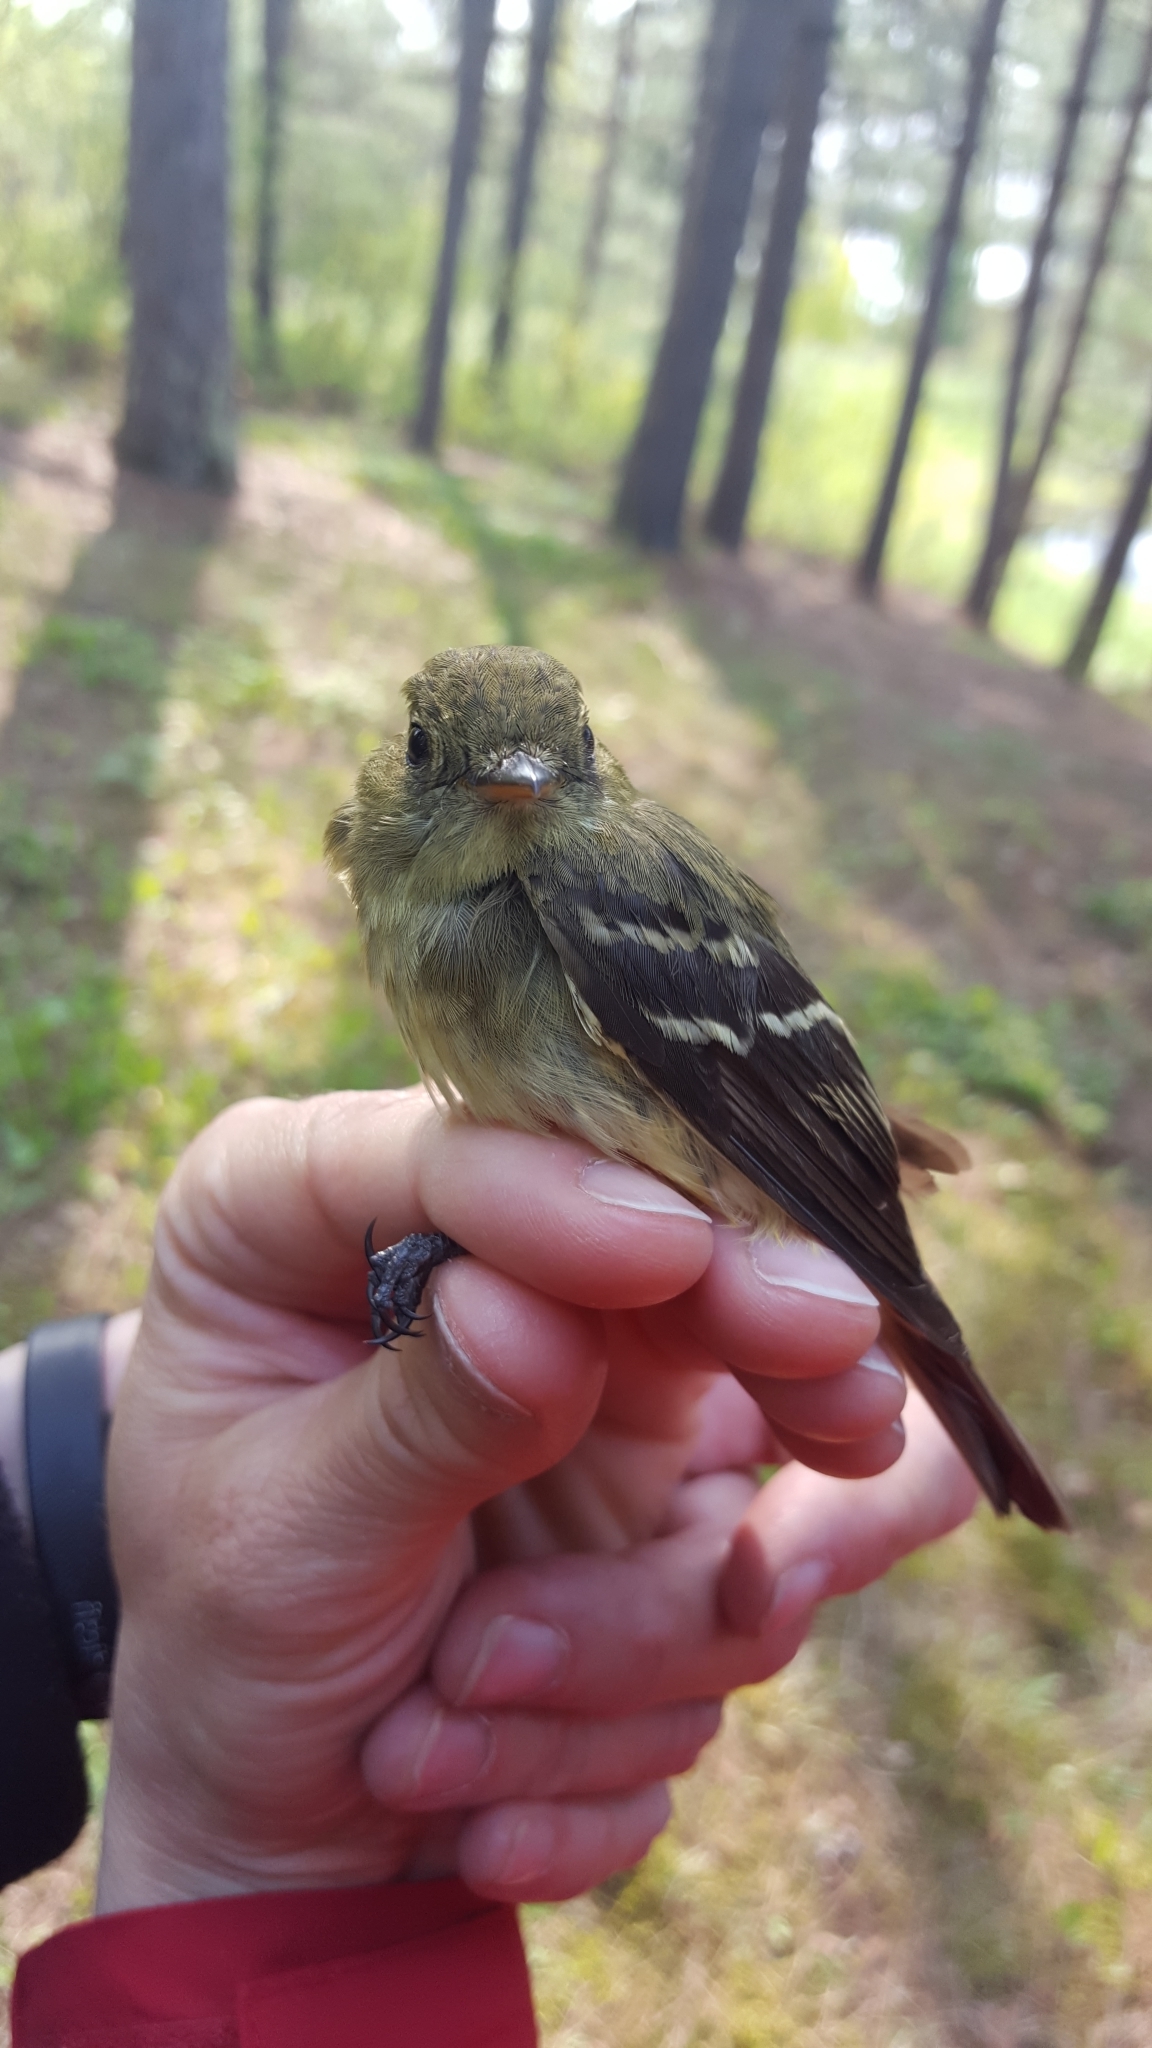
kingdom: Animalia
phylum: Chordata
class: Aves
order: Passeriformes
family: Tyrannidae
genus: Empidonax
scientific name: Empidonax flaviventris
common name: Yellow-bellied flycatcher
